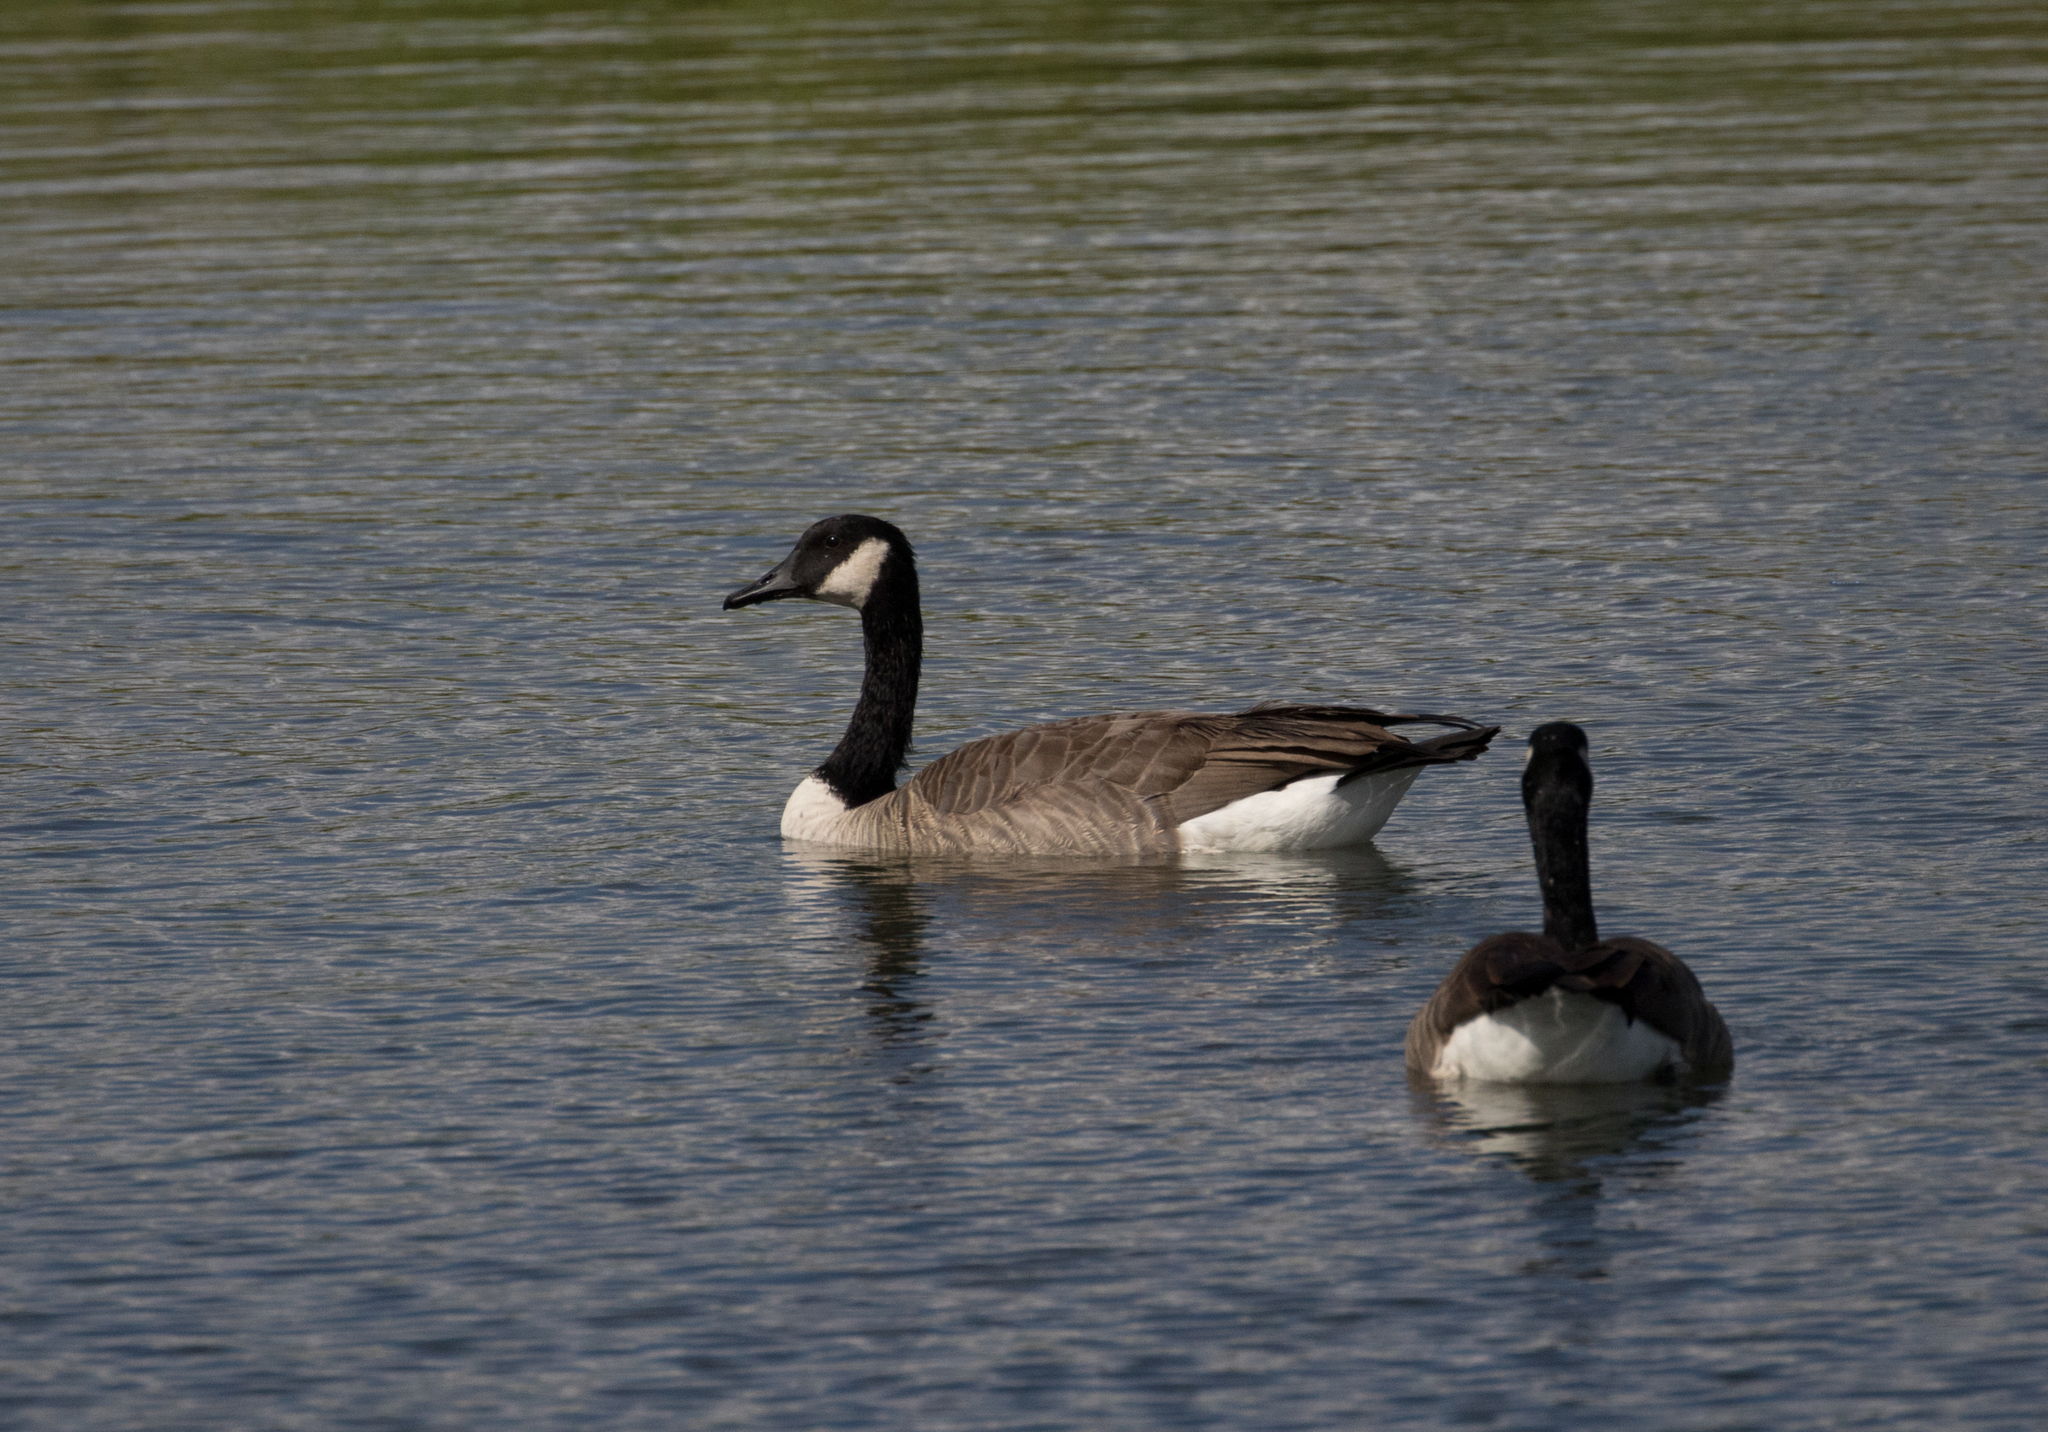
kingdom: Animalia
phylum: Chordata
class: Aves
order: Anseriformes
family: Anatidae
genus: Branta
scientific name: Branta canadensis
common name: Canada goose
